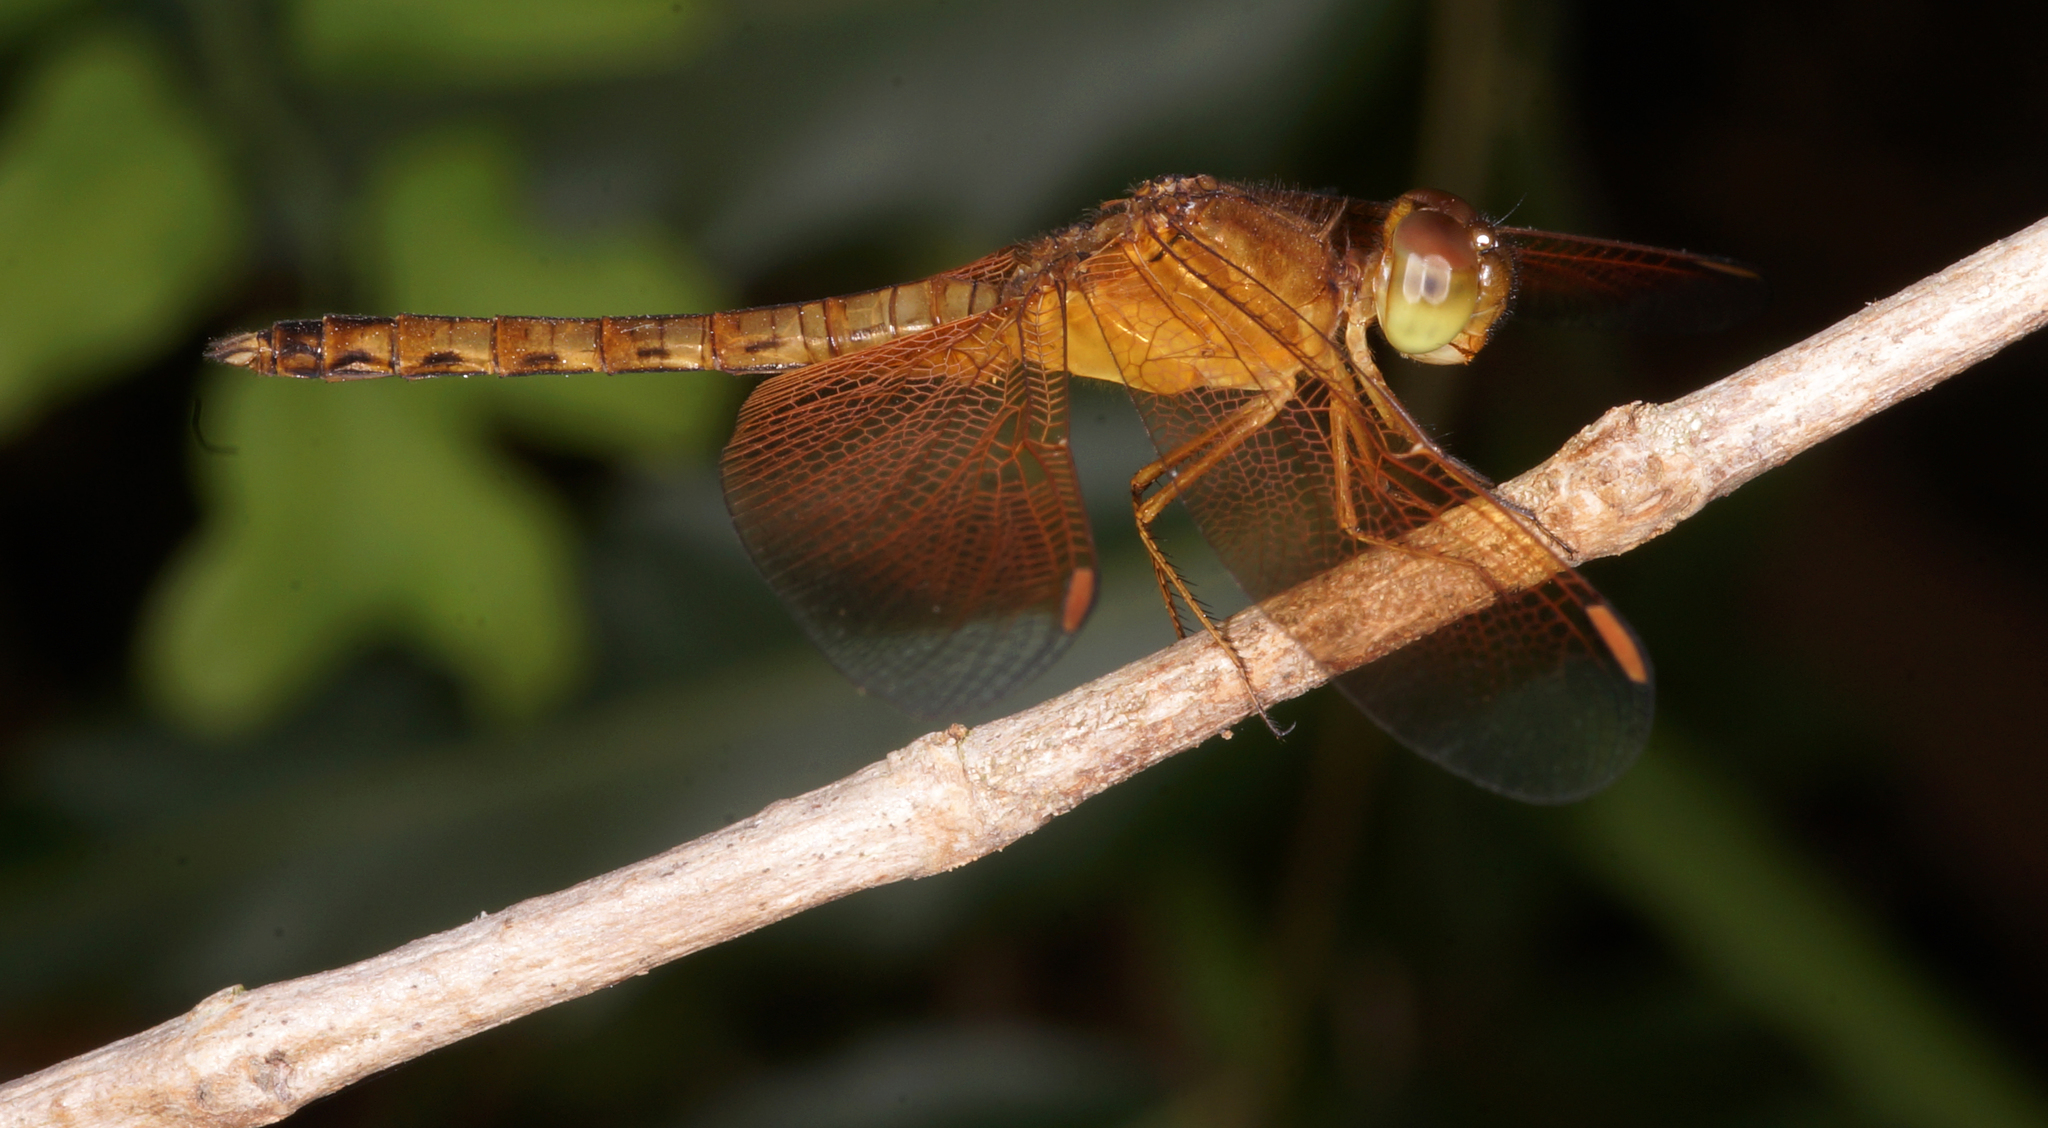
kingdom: Animalia
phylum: Arthropoda
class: Insecta
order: Odonata
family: Libellulidae
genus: Neurothemis
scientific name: Neurothemis fluctuans
